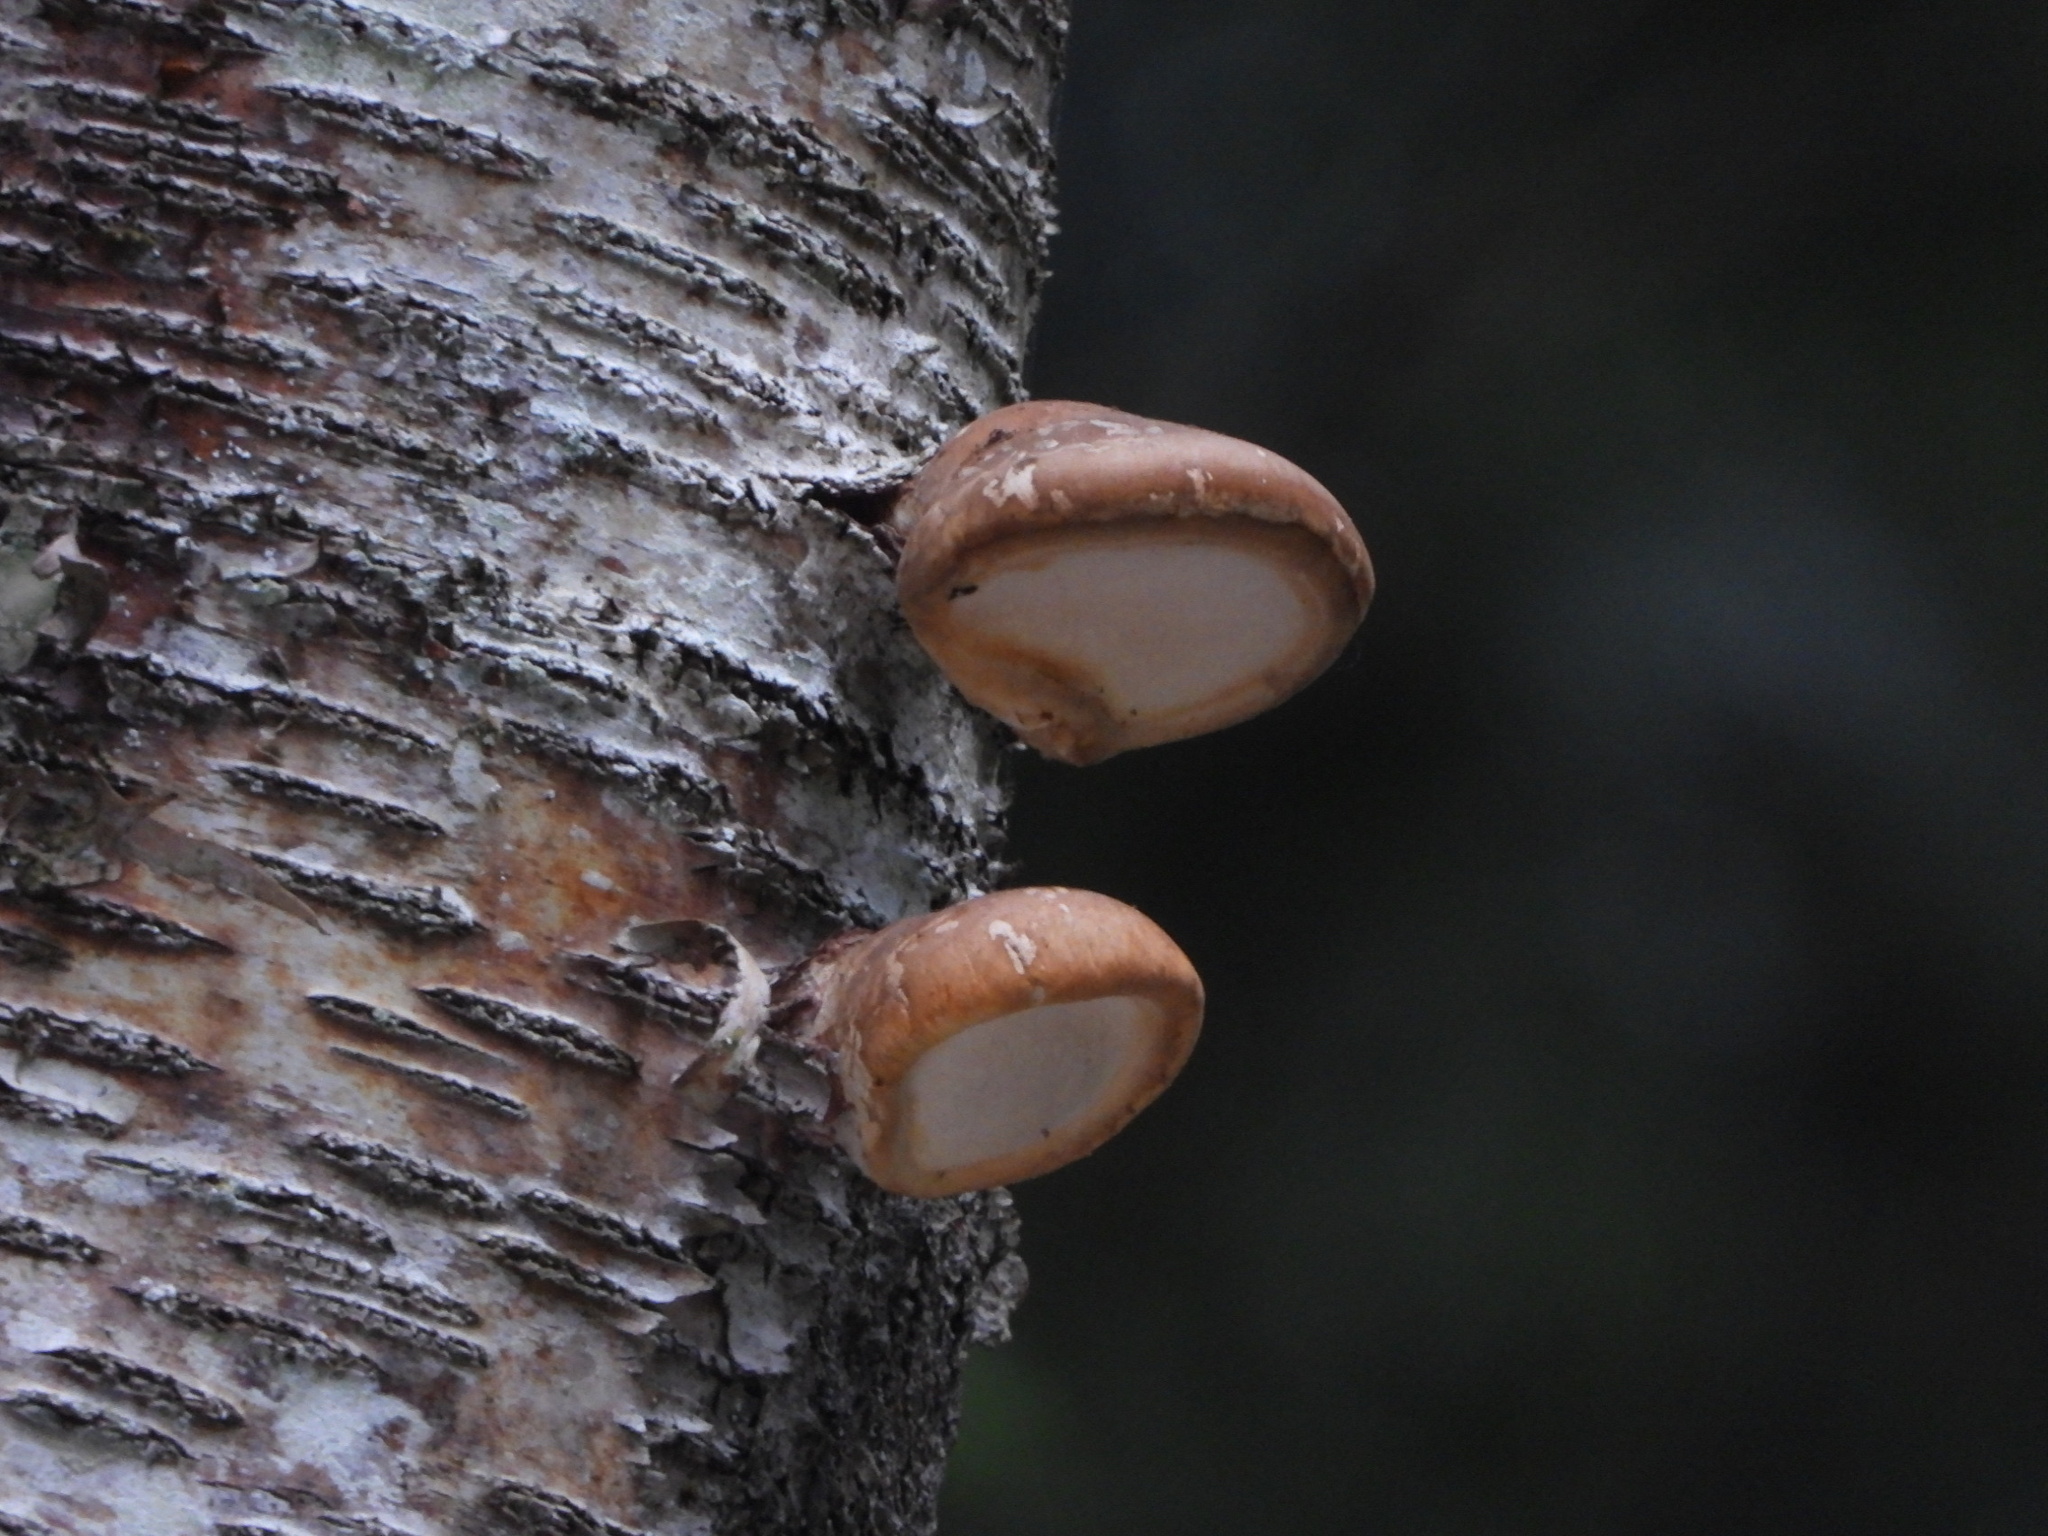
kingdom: Fungi
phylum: Basidiomycota
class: Agaricomycetes
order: Polyporales
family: Fomitopsidaceae
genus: Fomitopsis
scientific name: Fomitopsis betulina
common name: Birch polypore
